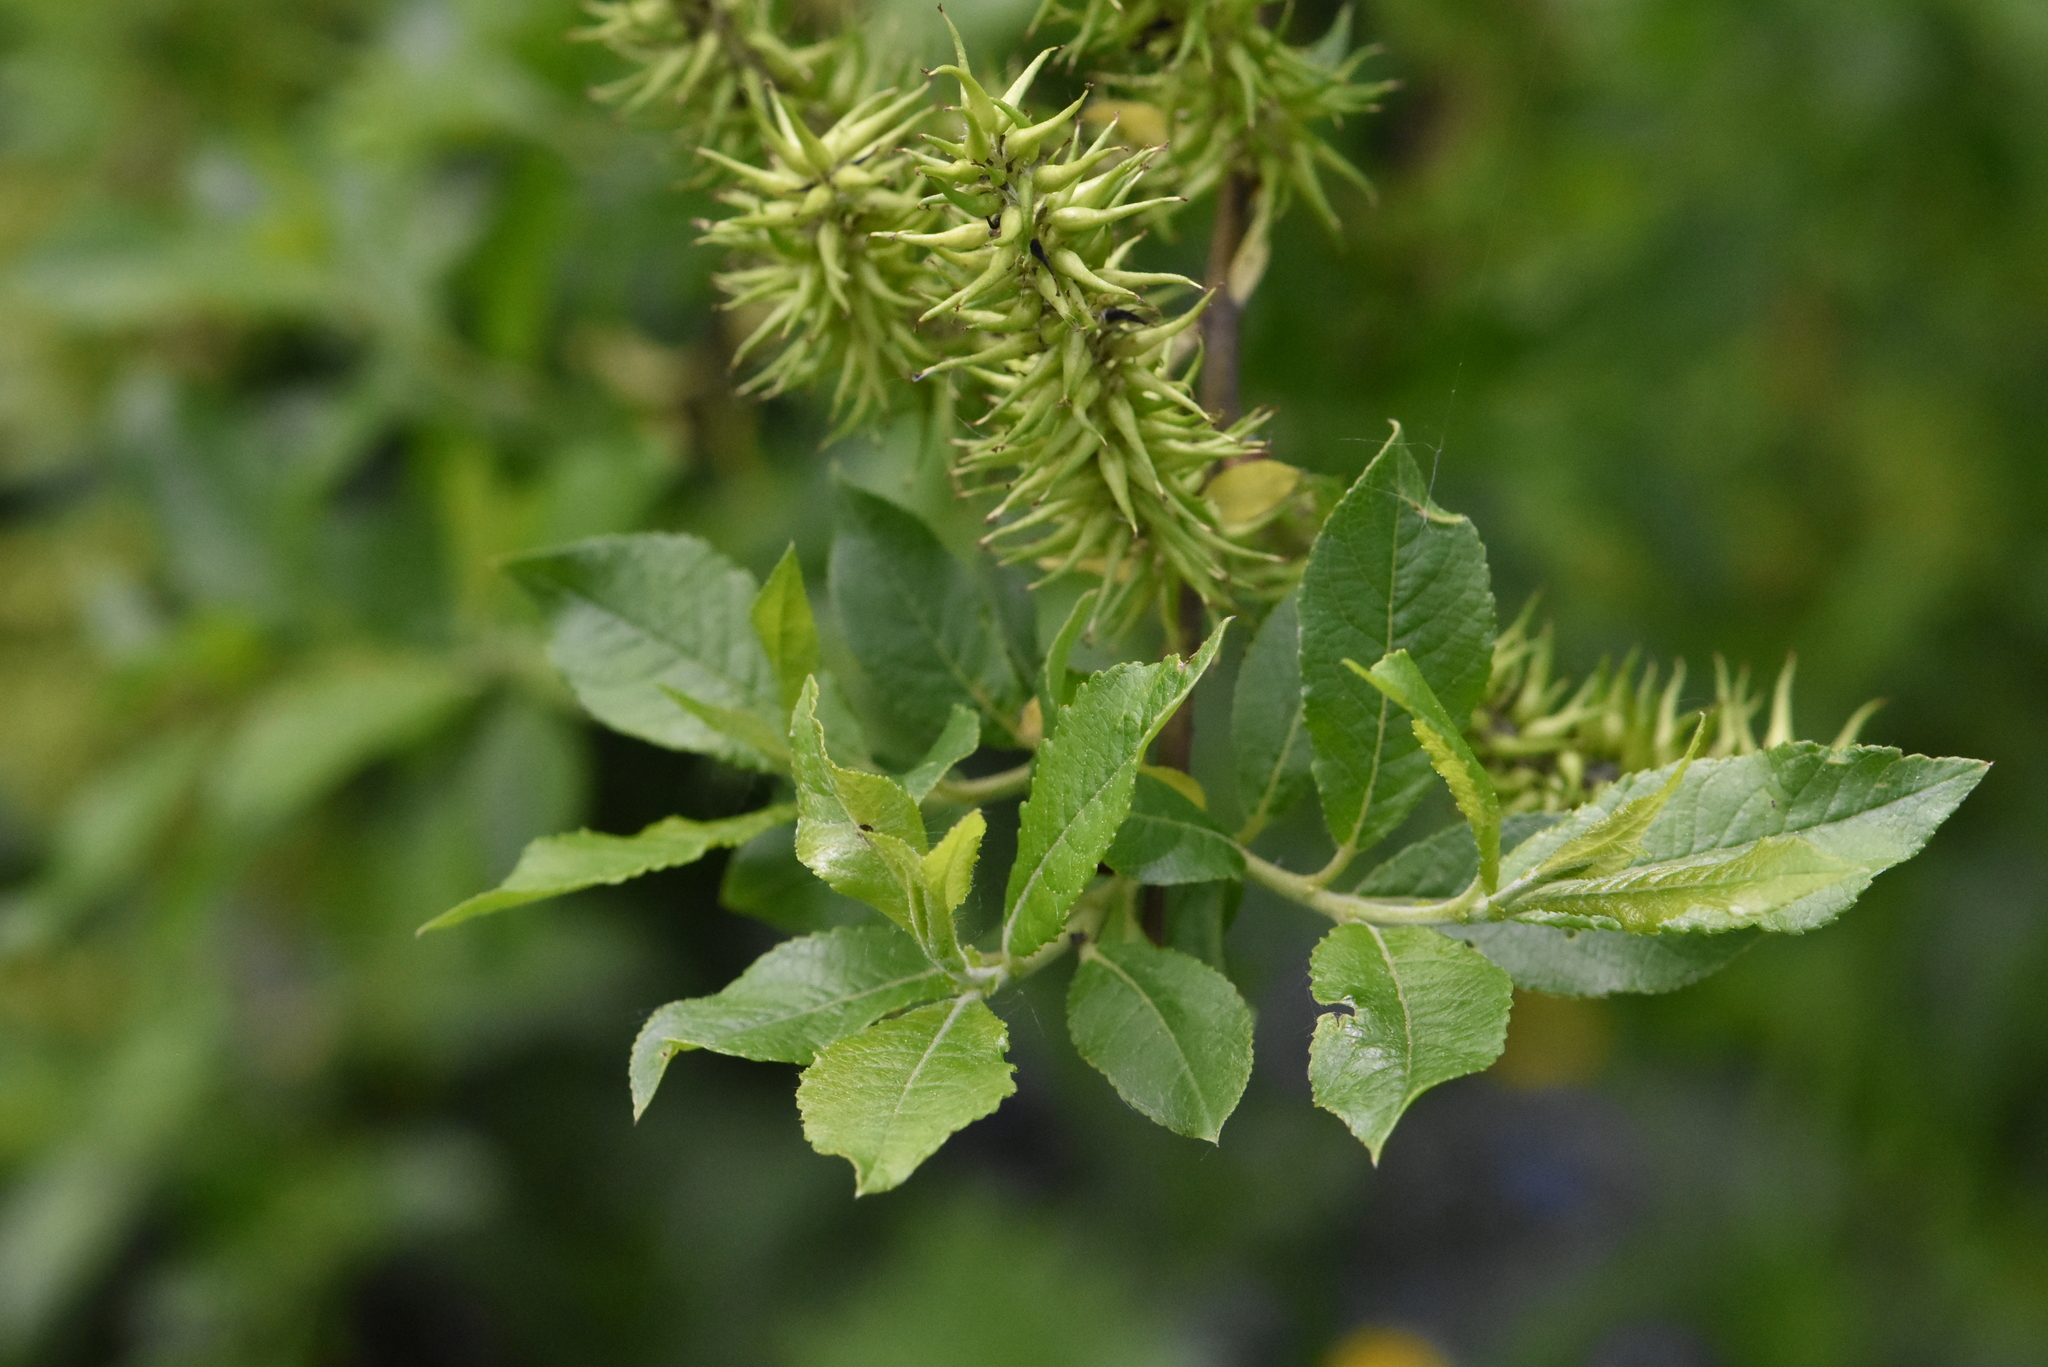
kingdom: Plantae
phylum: Tracheophyta
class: Magnoliopsida
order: Malpighiales
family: Salicaceae
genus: Salix
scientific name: Salix myrsinifolia
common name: Dark-leaved willow
